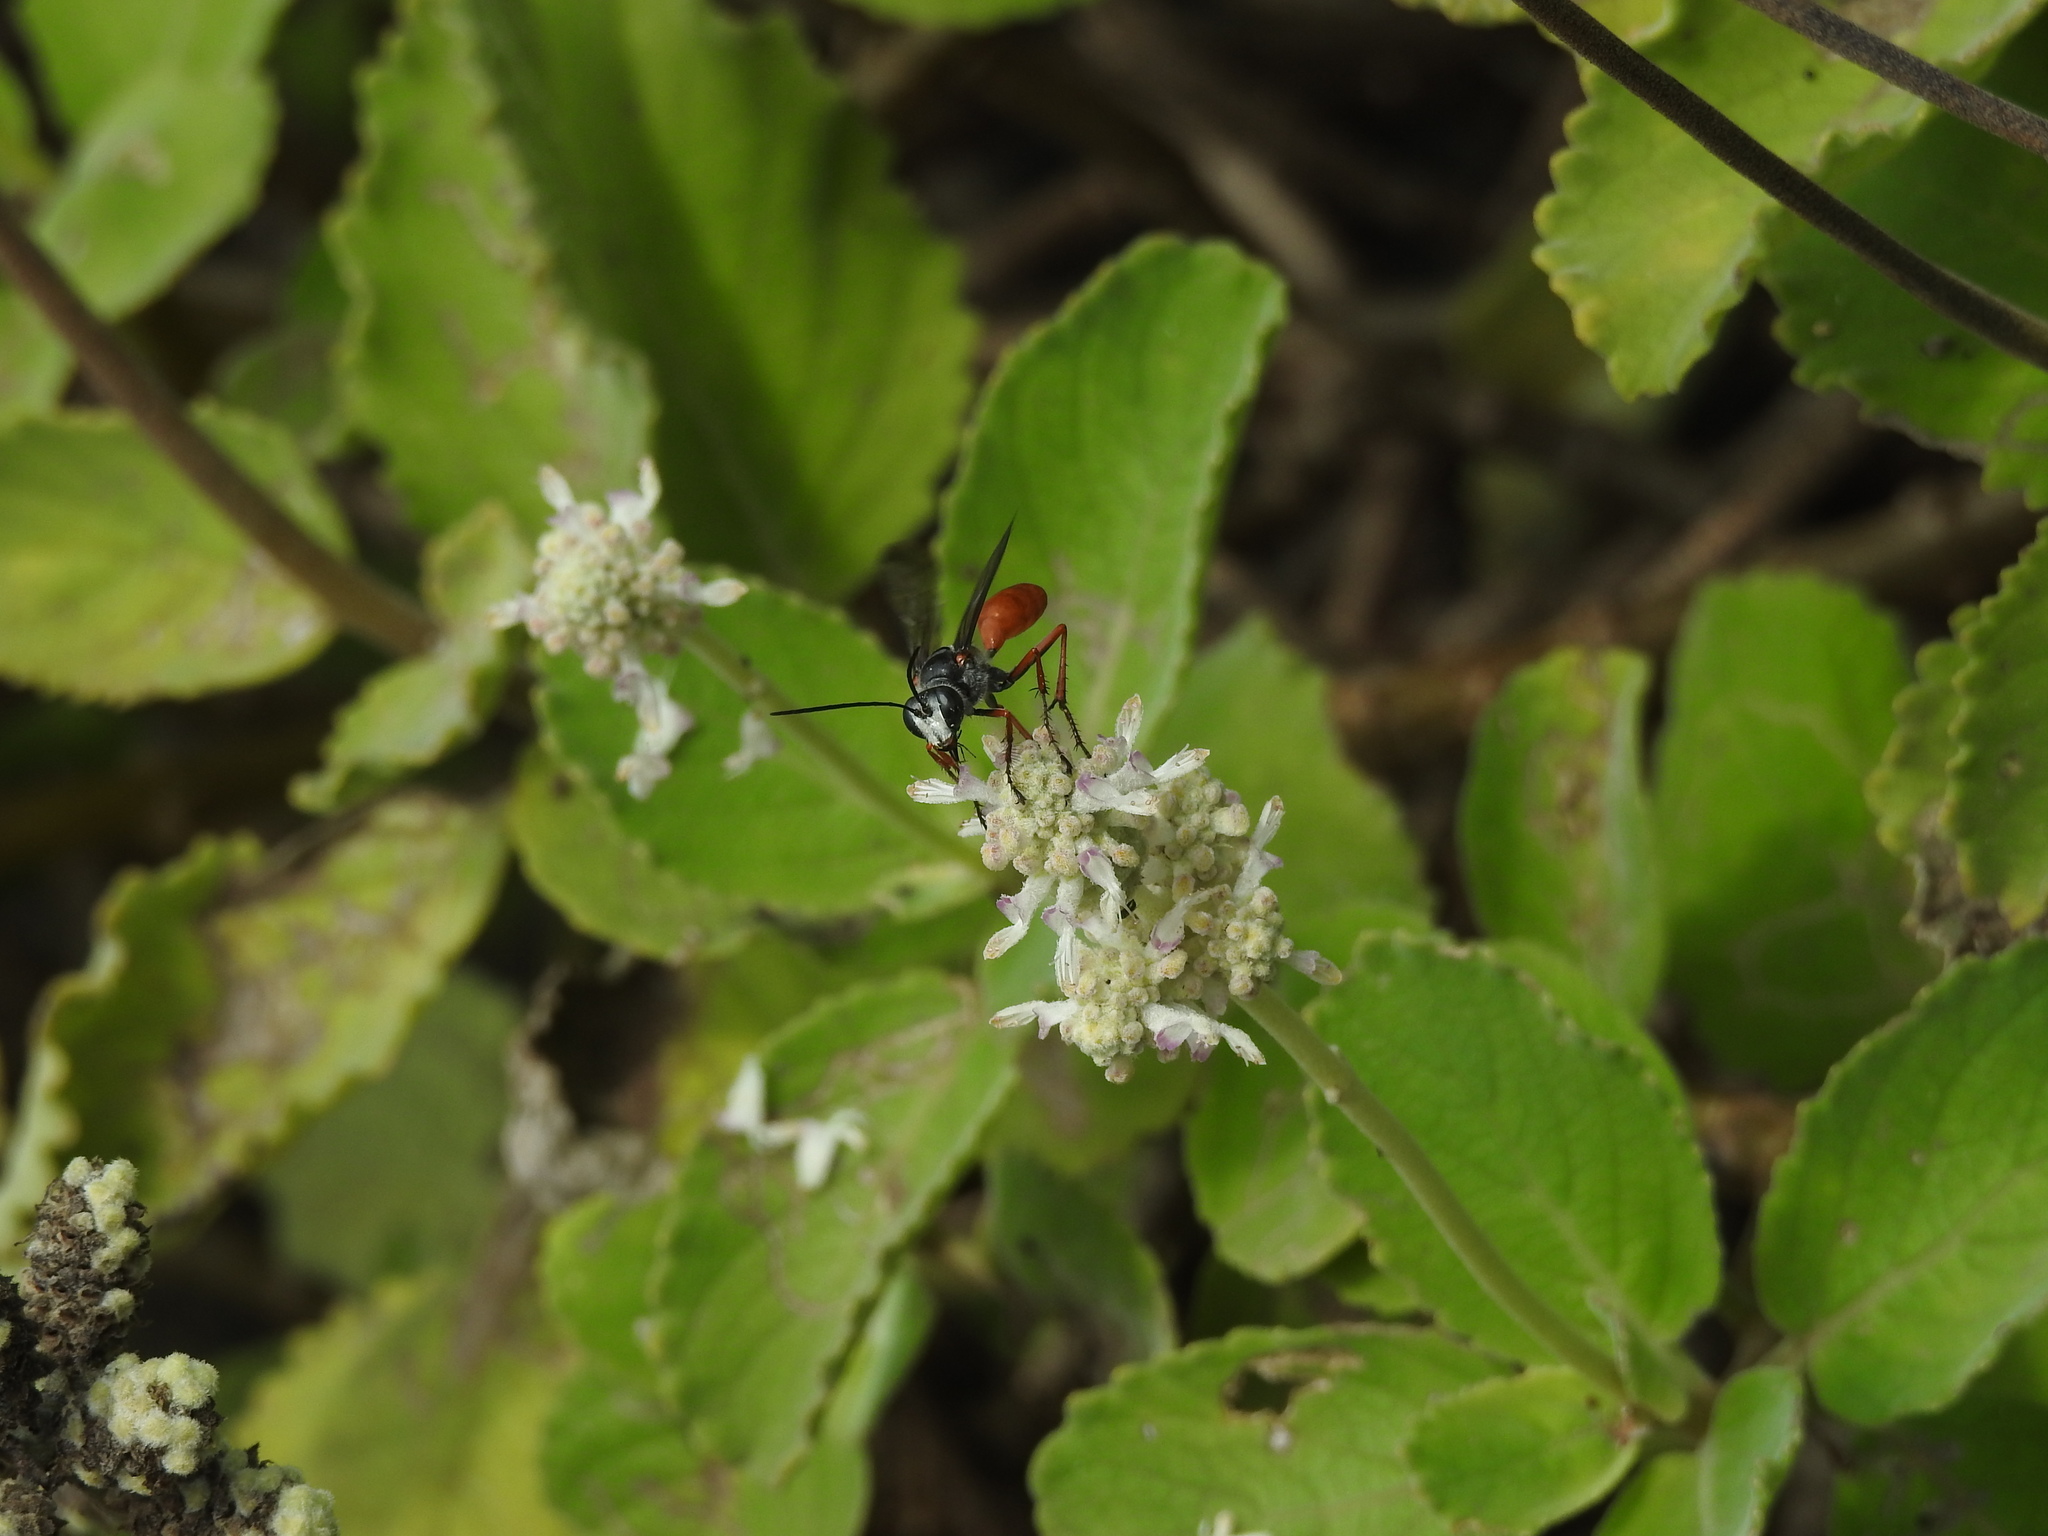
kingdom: Animalia
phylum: Arthropoda
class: Insecta
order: Hymenoptera
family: Sphecidae
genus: Sphex
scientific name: Sphex pruinosus
